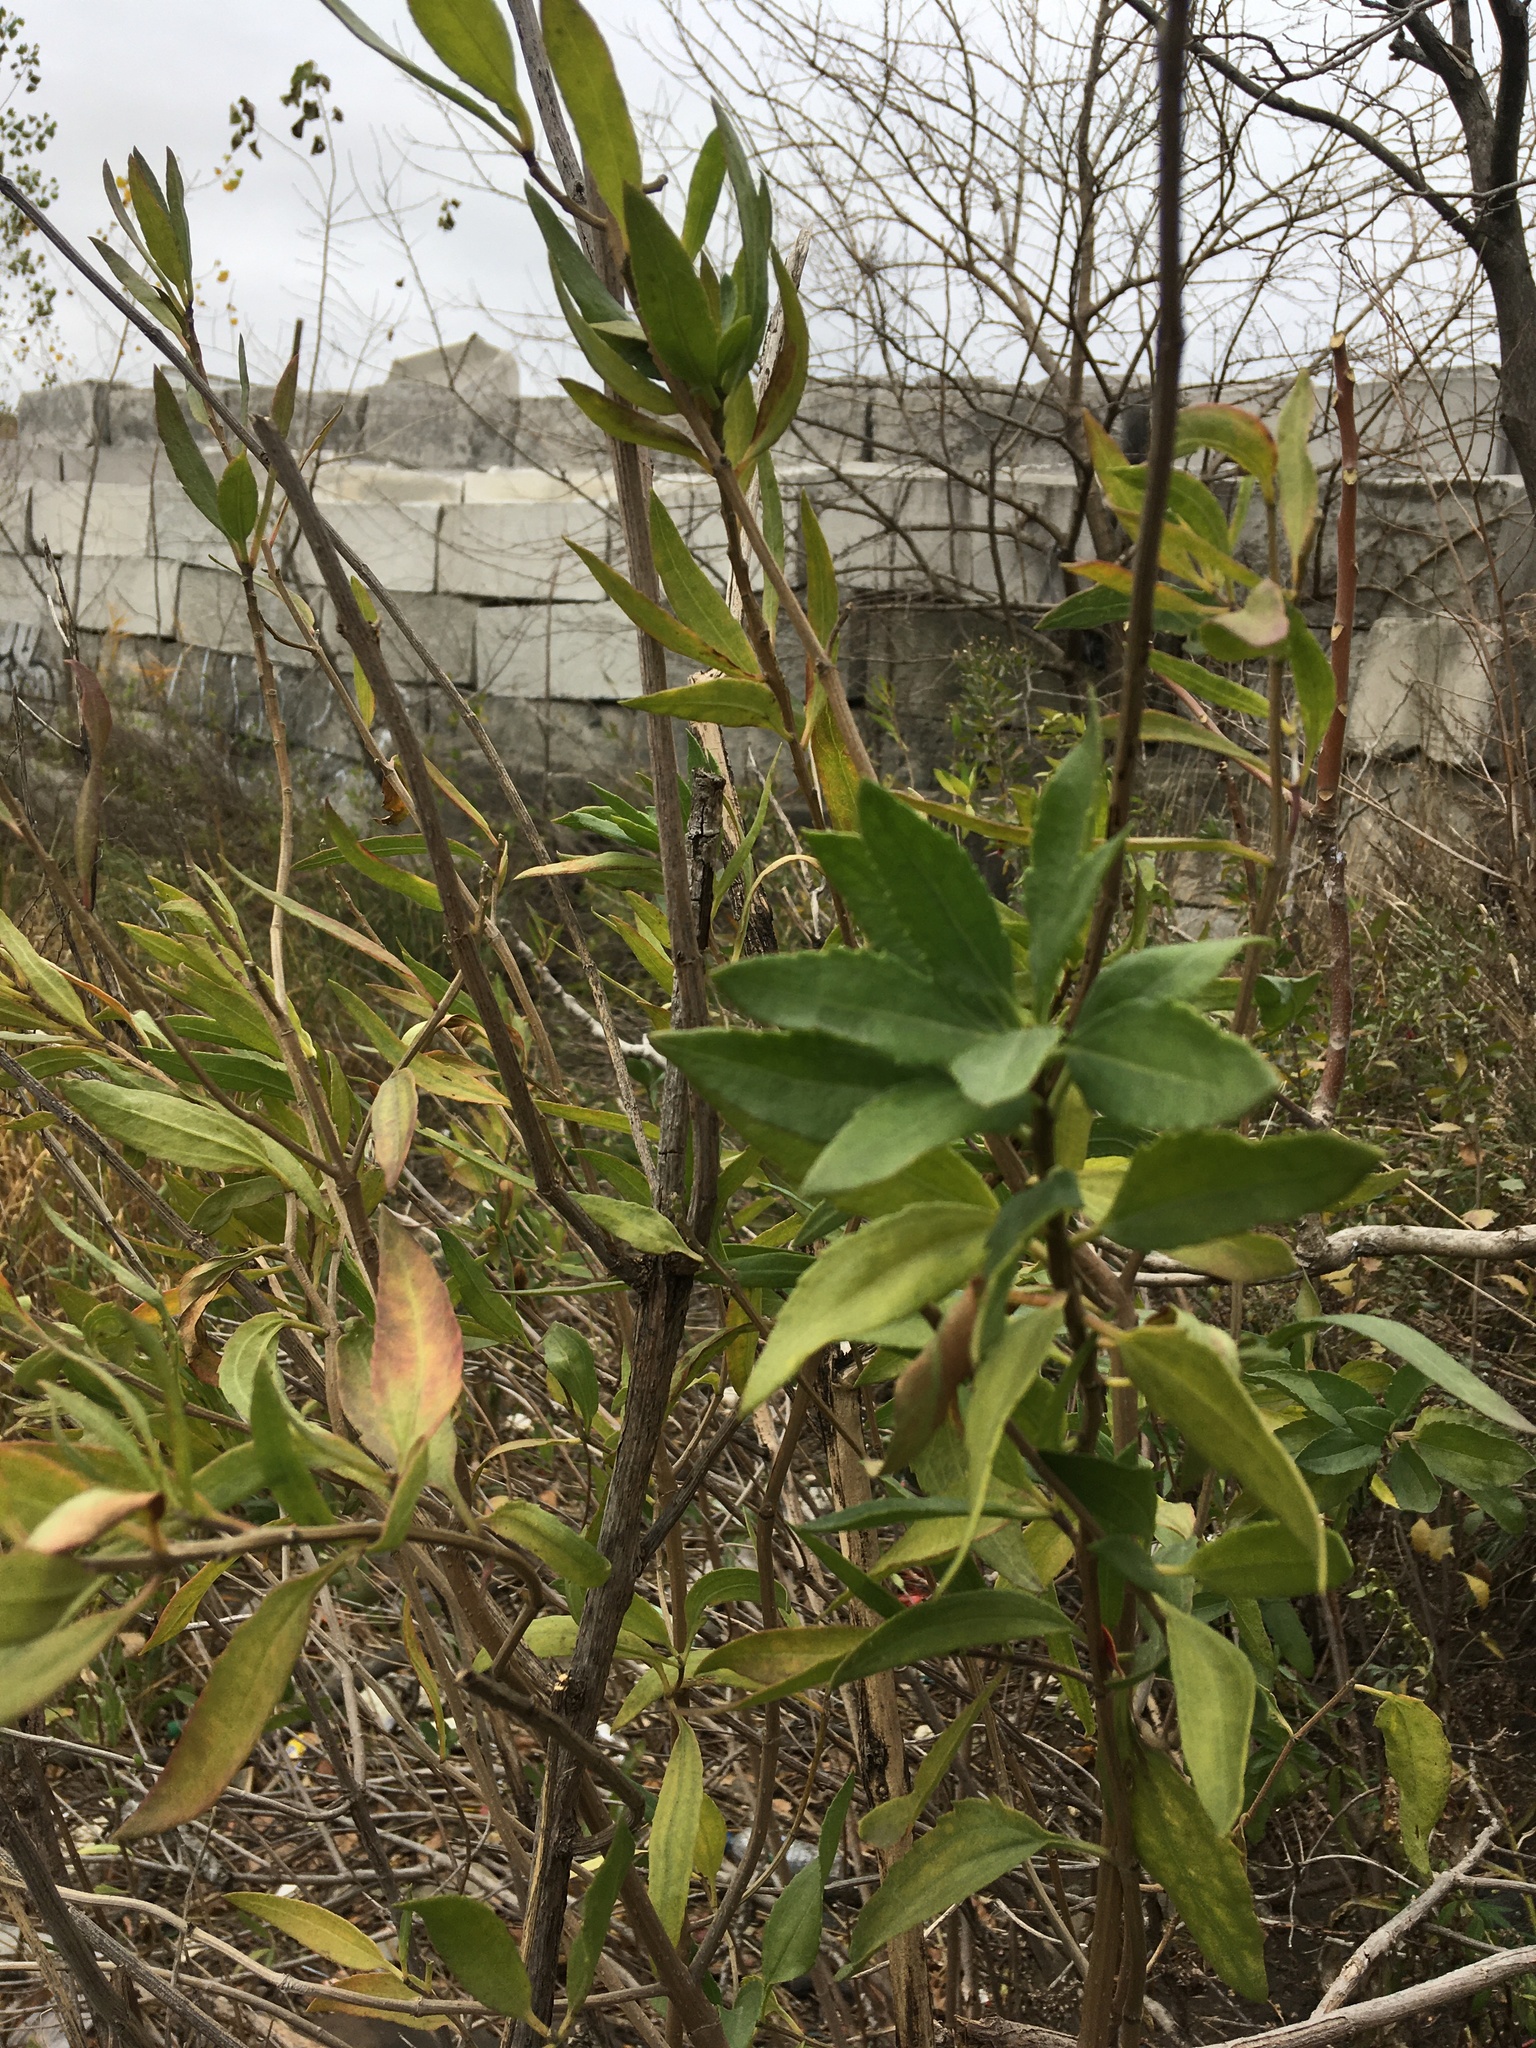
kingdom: Plantae
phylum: Tracheophyta
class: Magnoliopsida
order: Asterales
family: Asteraceae
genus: Iva
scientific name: Iva frutescens
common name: Big-leaved marsh-elder
